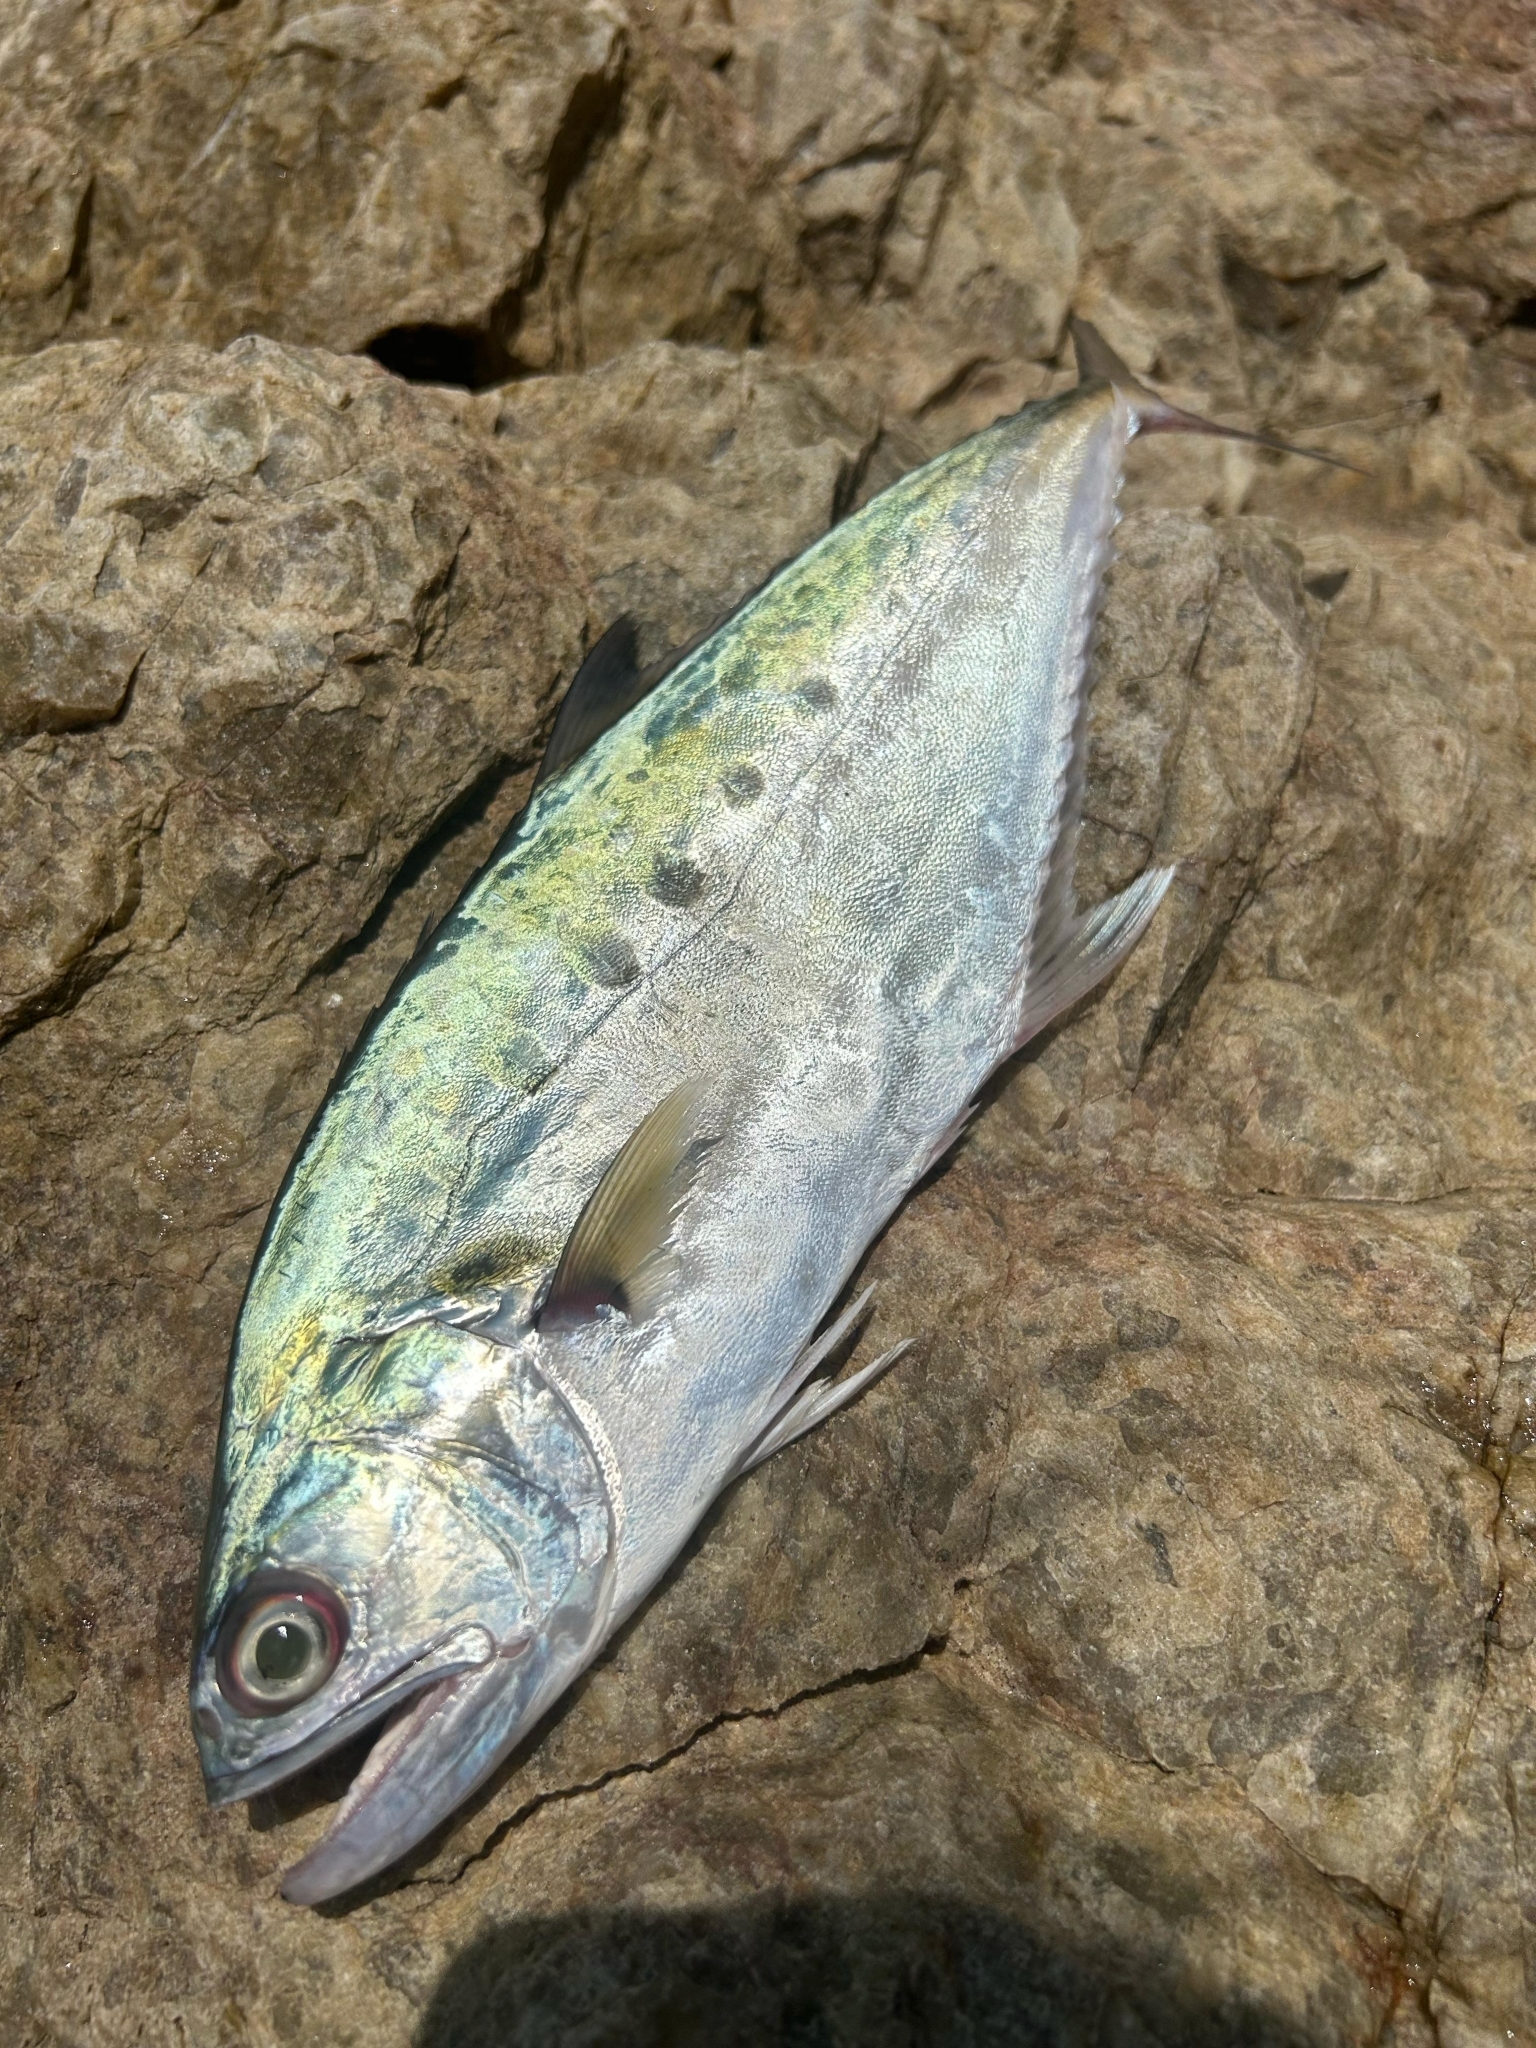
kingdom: Animalia
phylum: Chordata
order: Perciformes
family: Carangidae
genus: Scomberoides
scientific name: Scomberoides commersonnianus
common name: Talang queenfish
